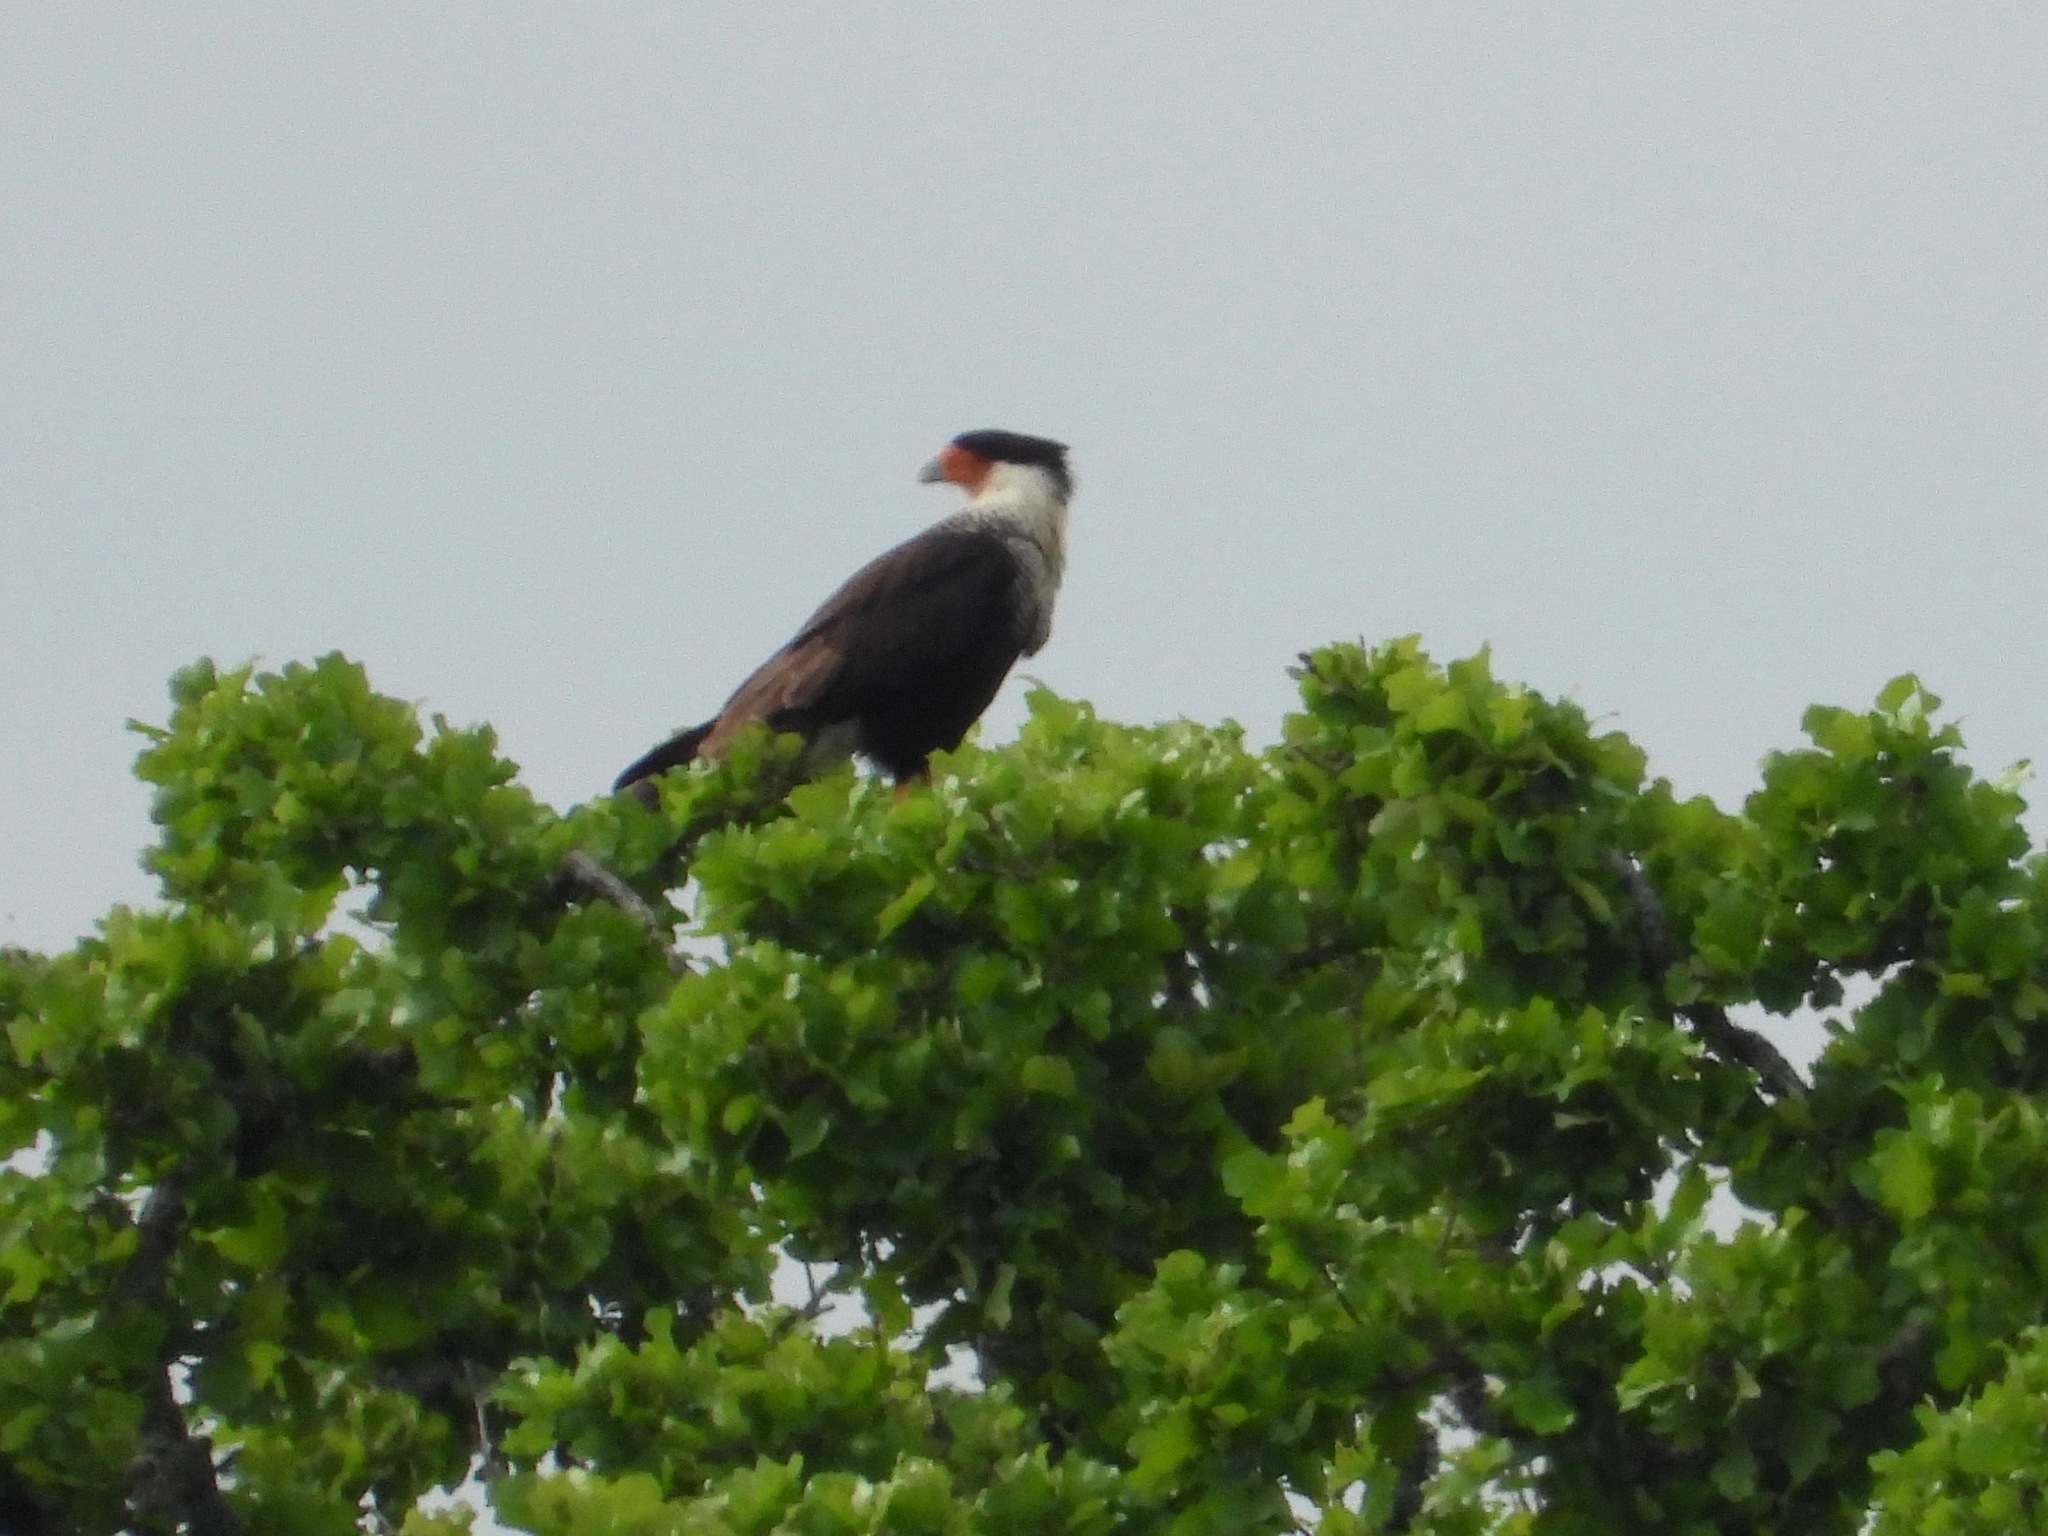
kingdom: Animalia
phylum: Chordata
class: Aves
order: Falconiformes
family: Falconidae
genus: Caracara
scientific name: Caracara plancus
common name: Southern caracara
